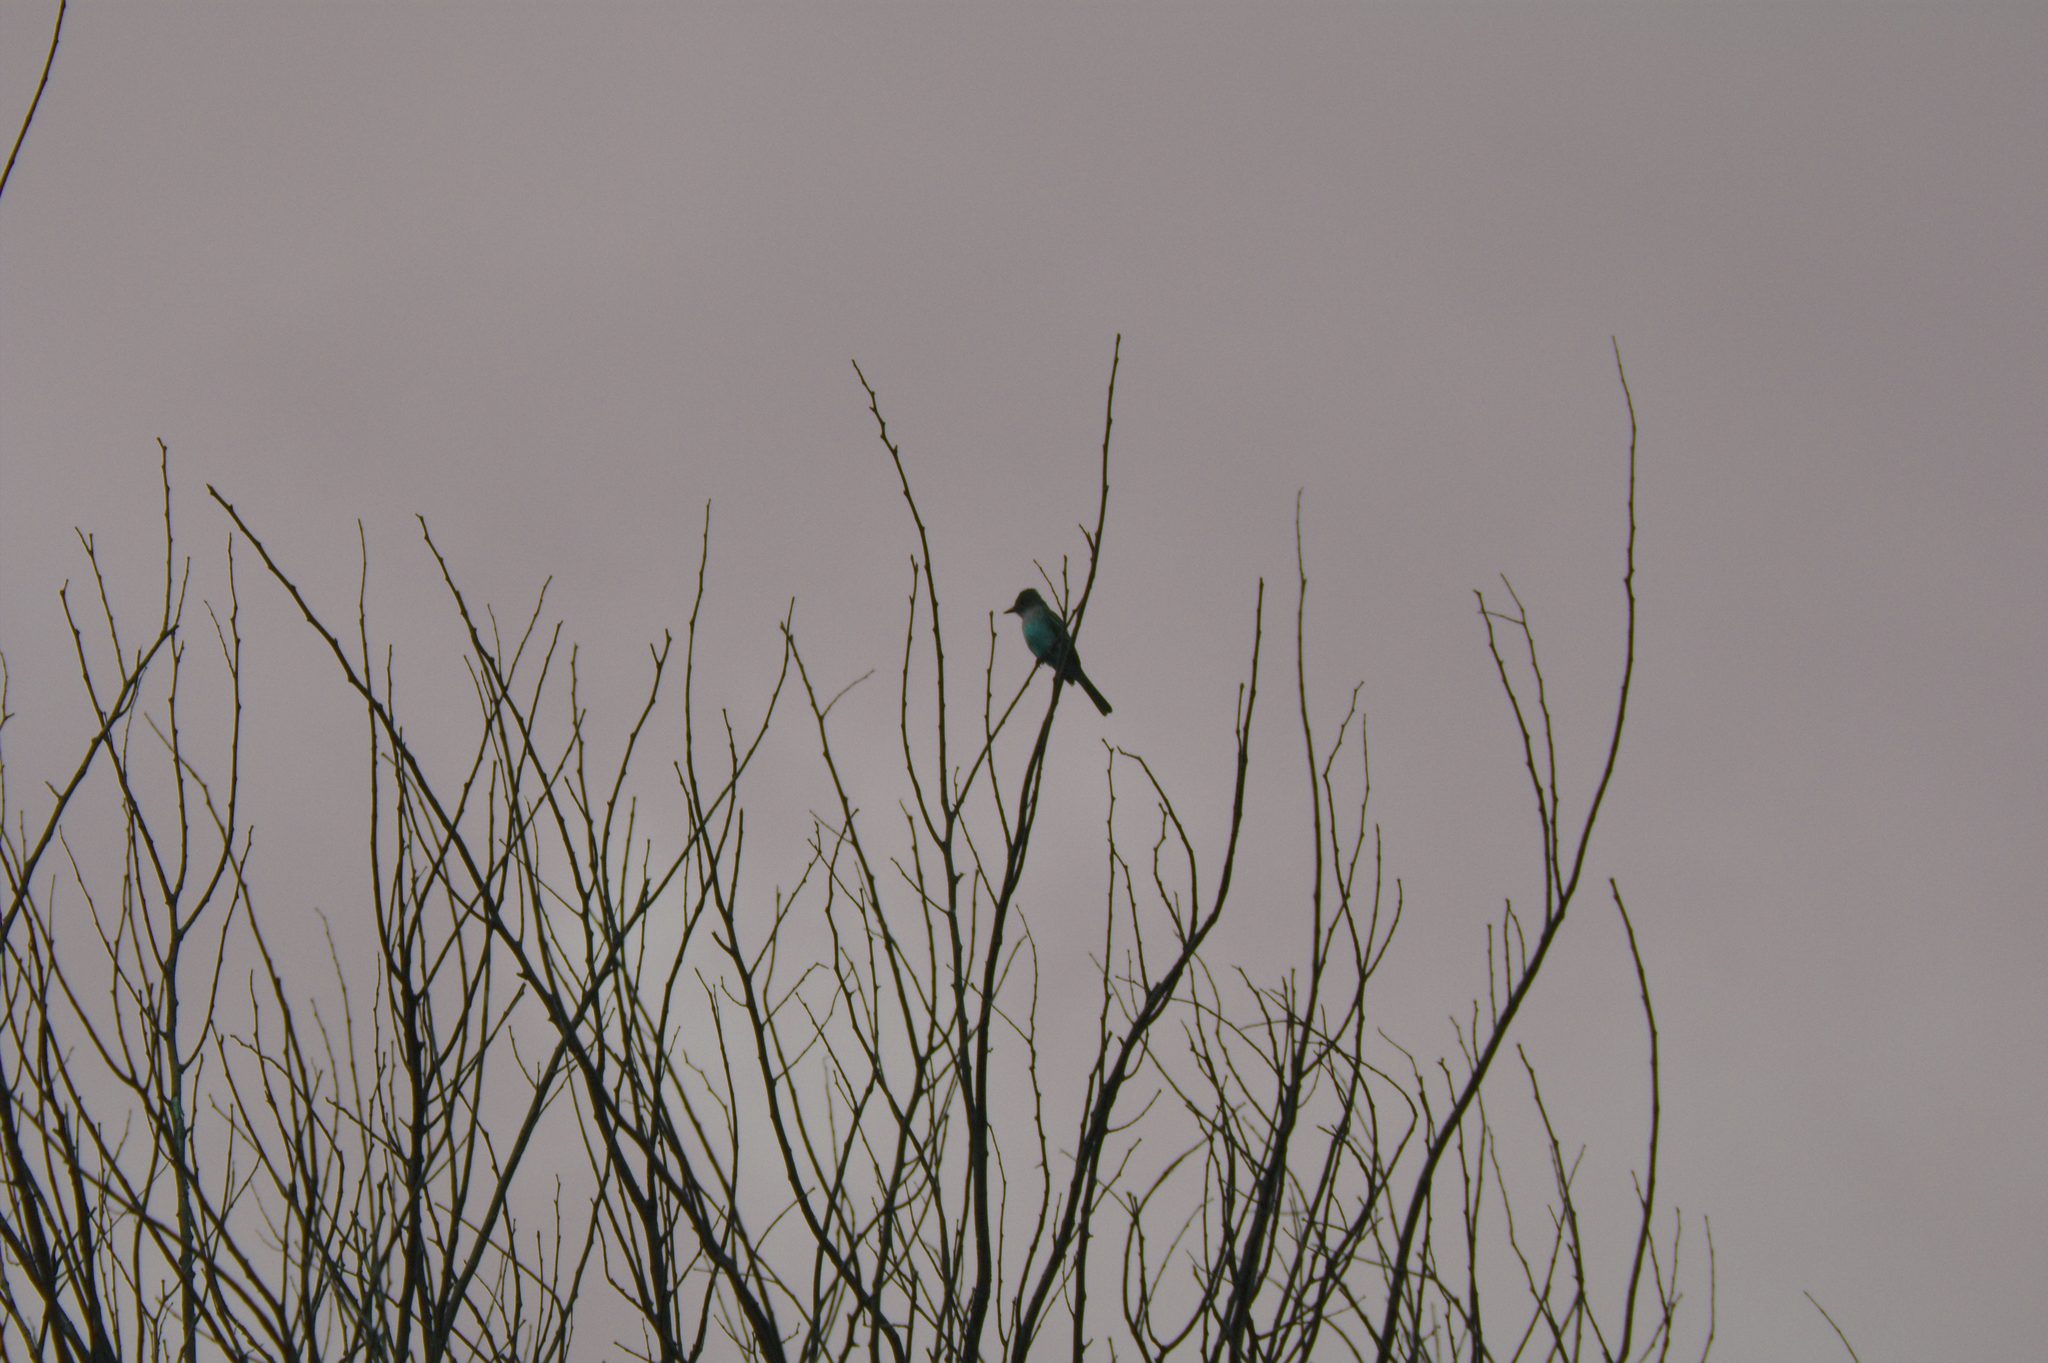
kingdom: Animalia
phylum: Chordata
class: Aves
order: Passeriformes
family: Tyrannidae
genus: Myiarchus
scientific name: Myiarchus crinitus
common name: Great crested flycatcher
